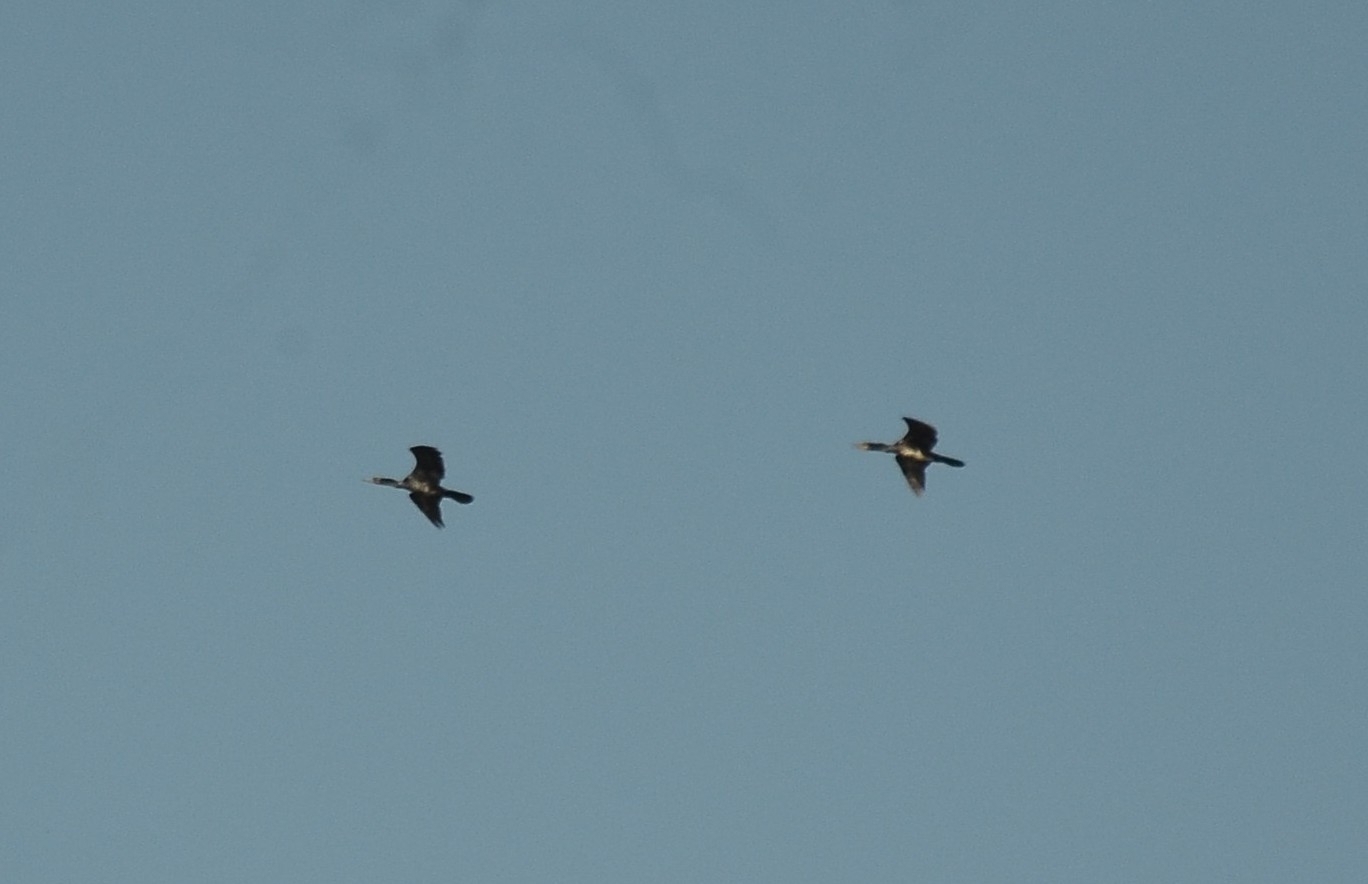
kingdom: Animalia
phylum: Chordata
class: Aves
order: Suliformes
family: Phalacrocoracidae
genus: Phalacrocorax
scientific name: Phalacrocorax fuscicollis
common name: Indian cormorant
